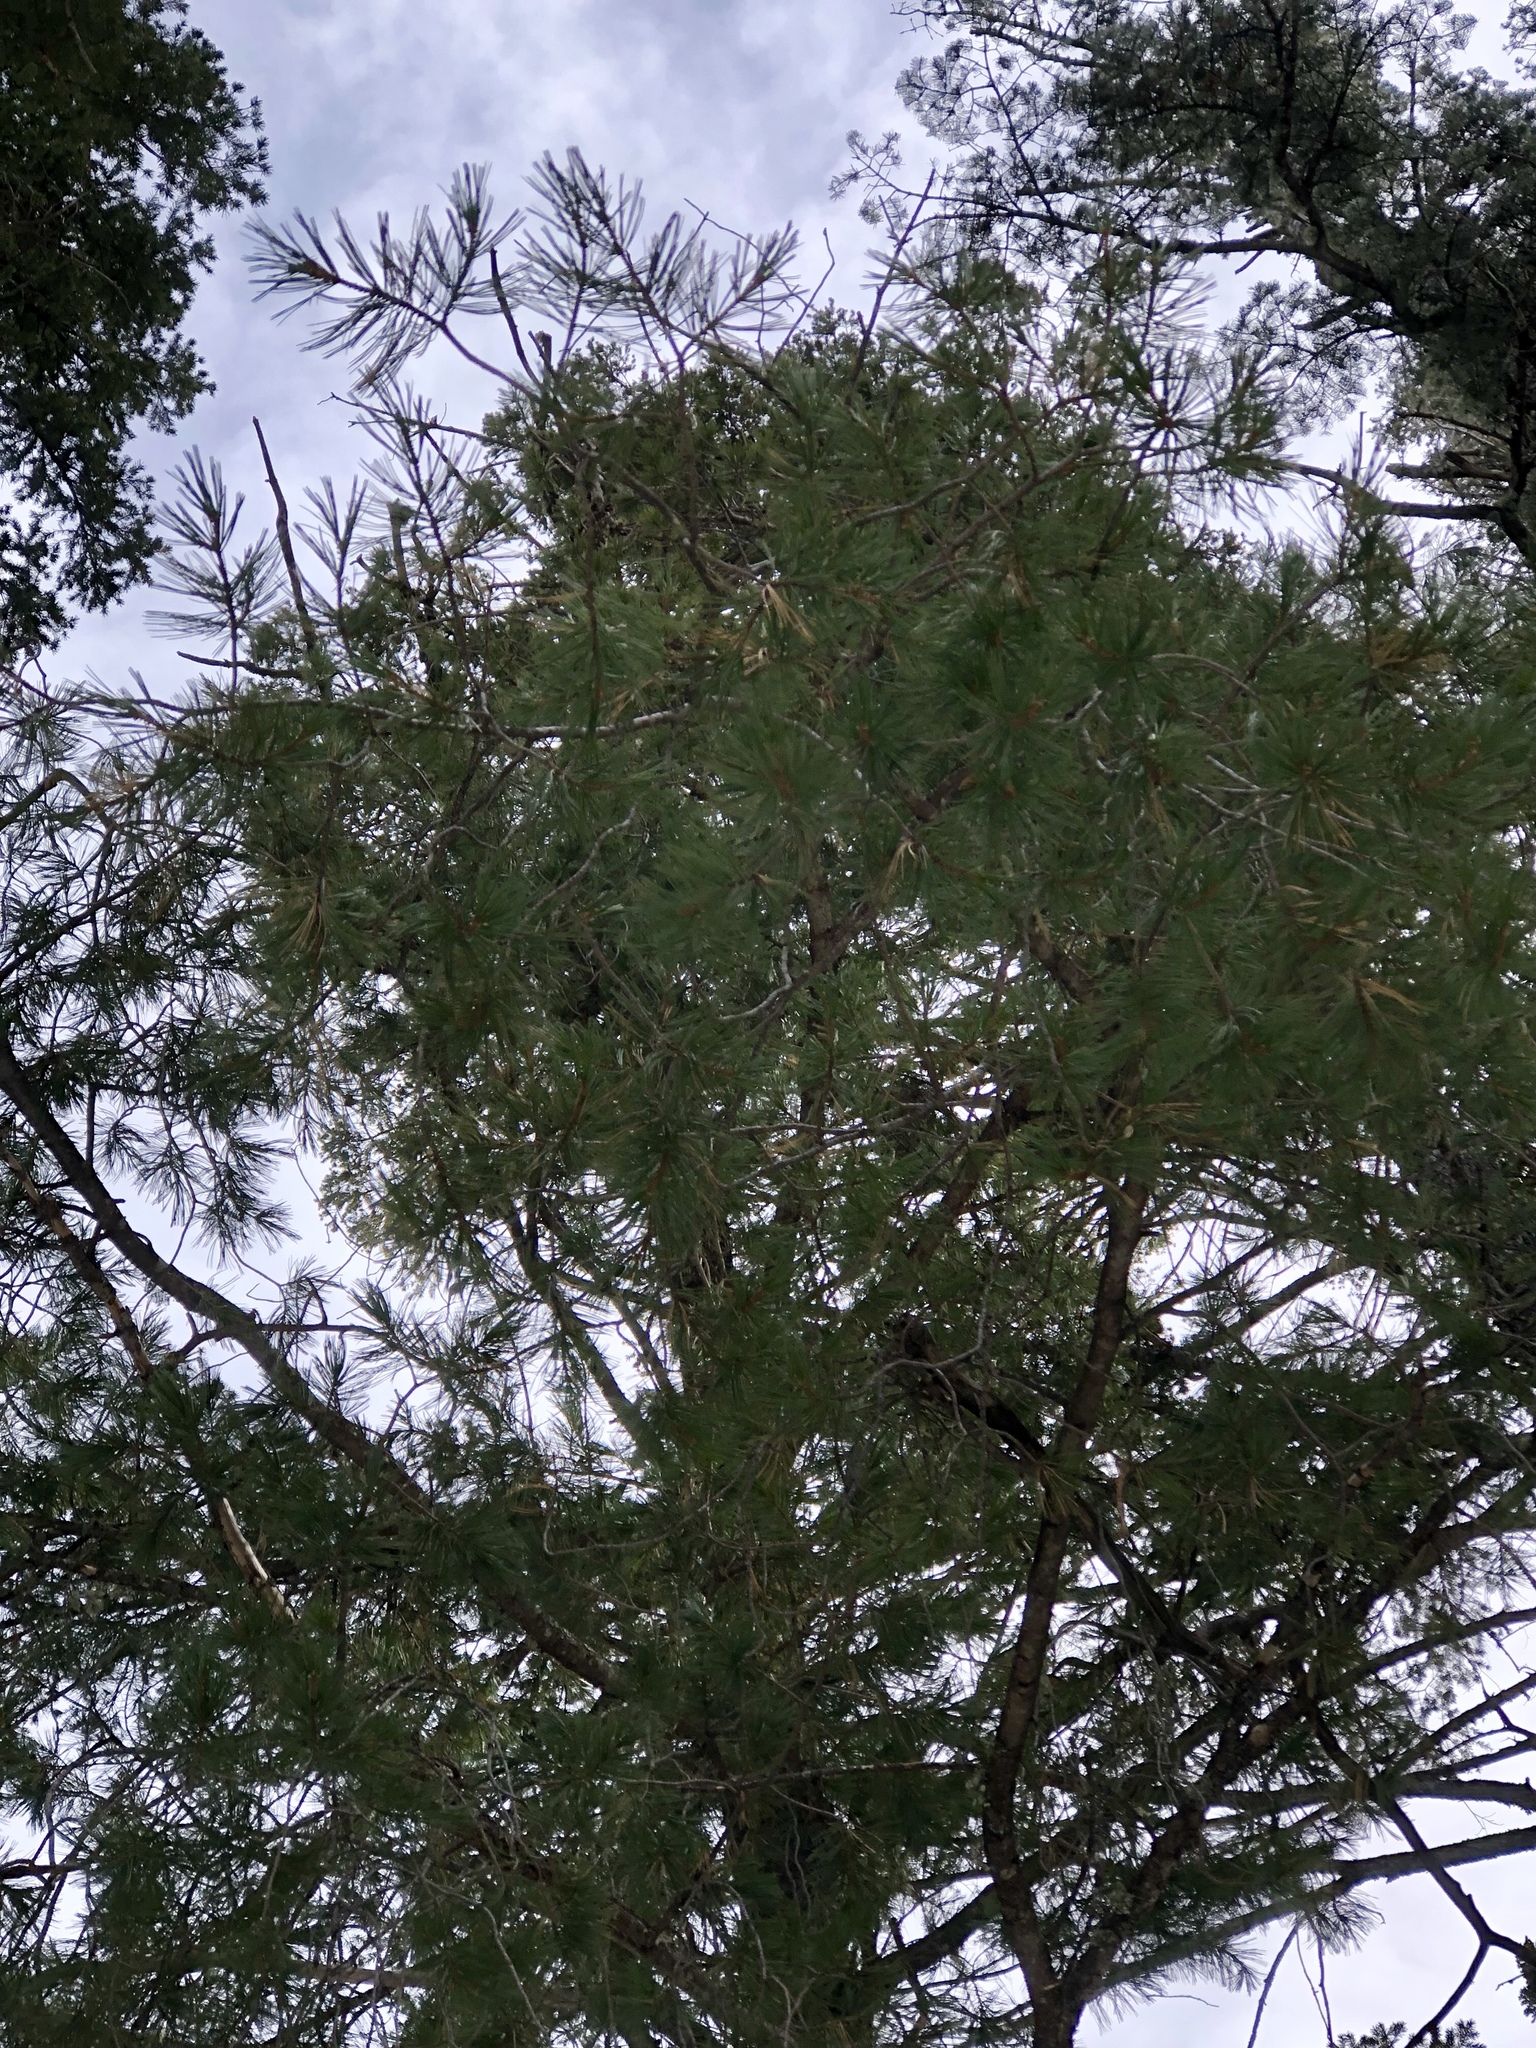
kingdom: Plantae
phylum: Tracheophyta
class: Pinopsida
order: Pinales
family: Pinaceae
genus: Pinus
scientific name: Pinus strobiformis
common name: Southwestern white pine
